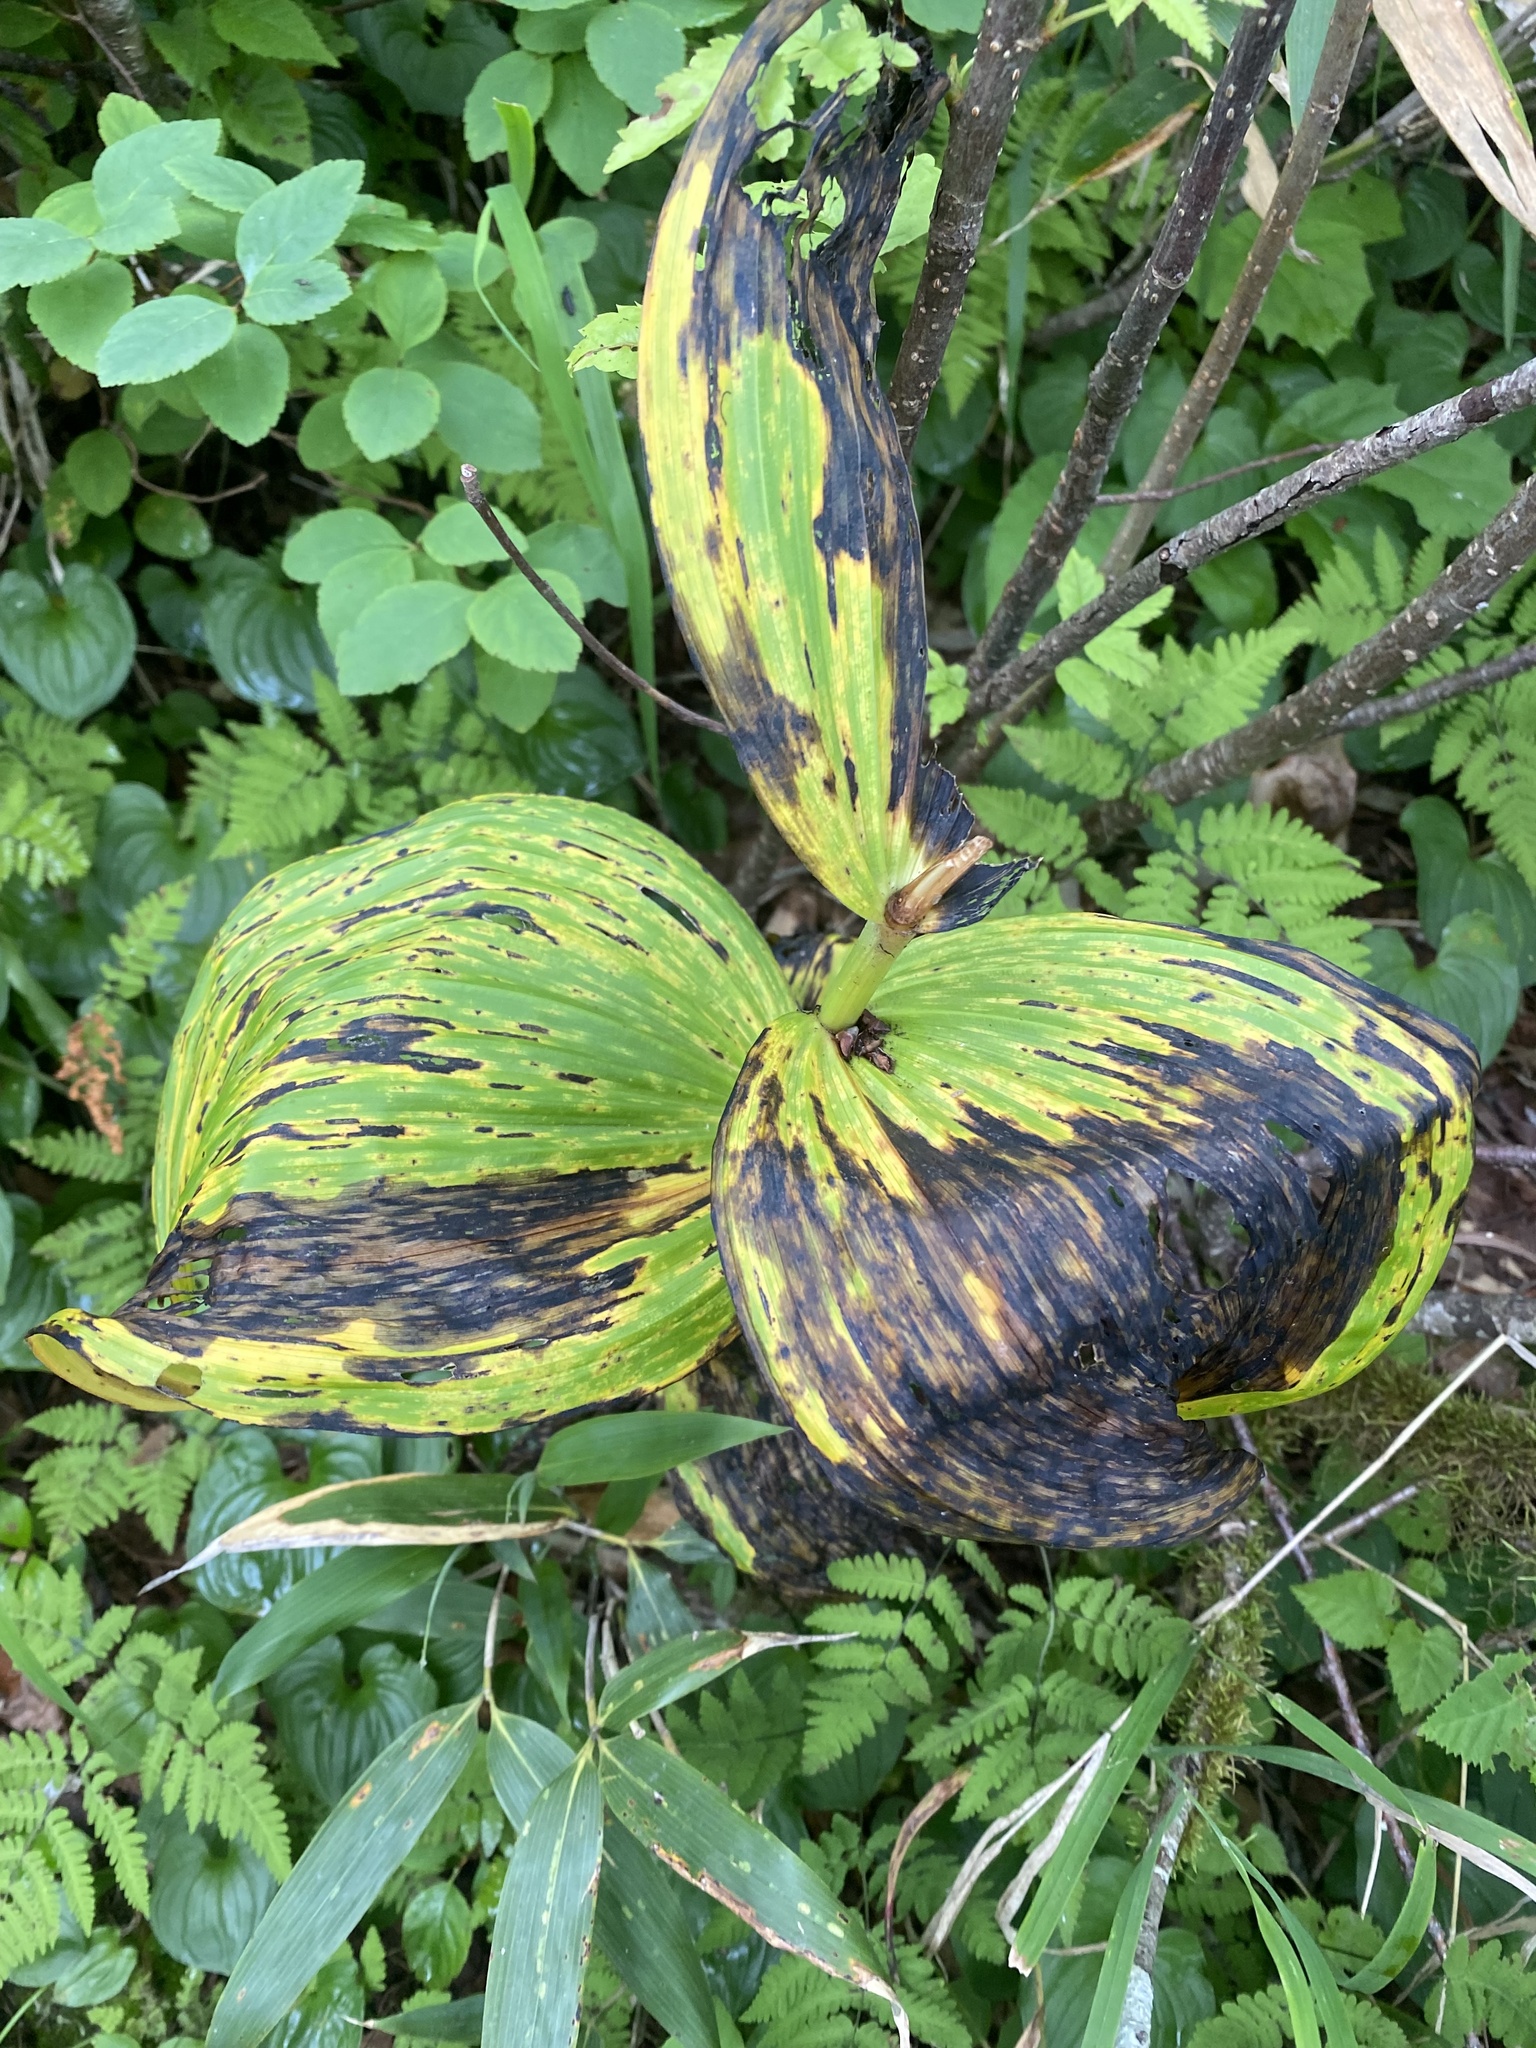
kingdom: Plantae
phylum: Tracheophyta
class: Liliopsida
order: Liliales
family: Melanthiaceae
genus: Veratrum
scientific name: Veratrum oxysepalum
